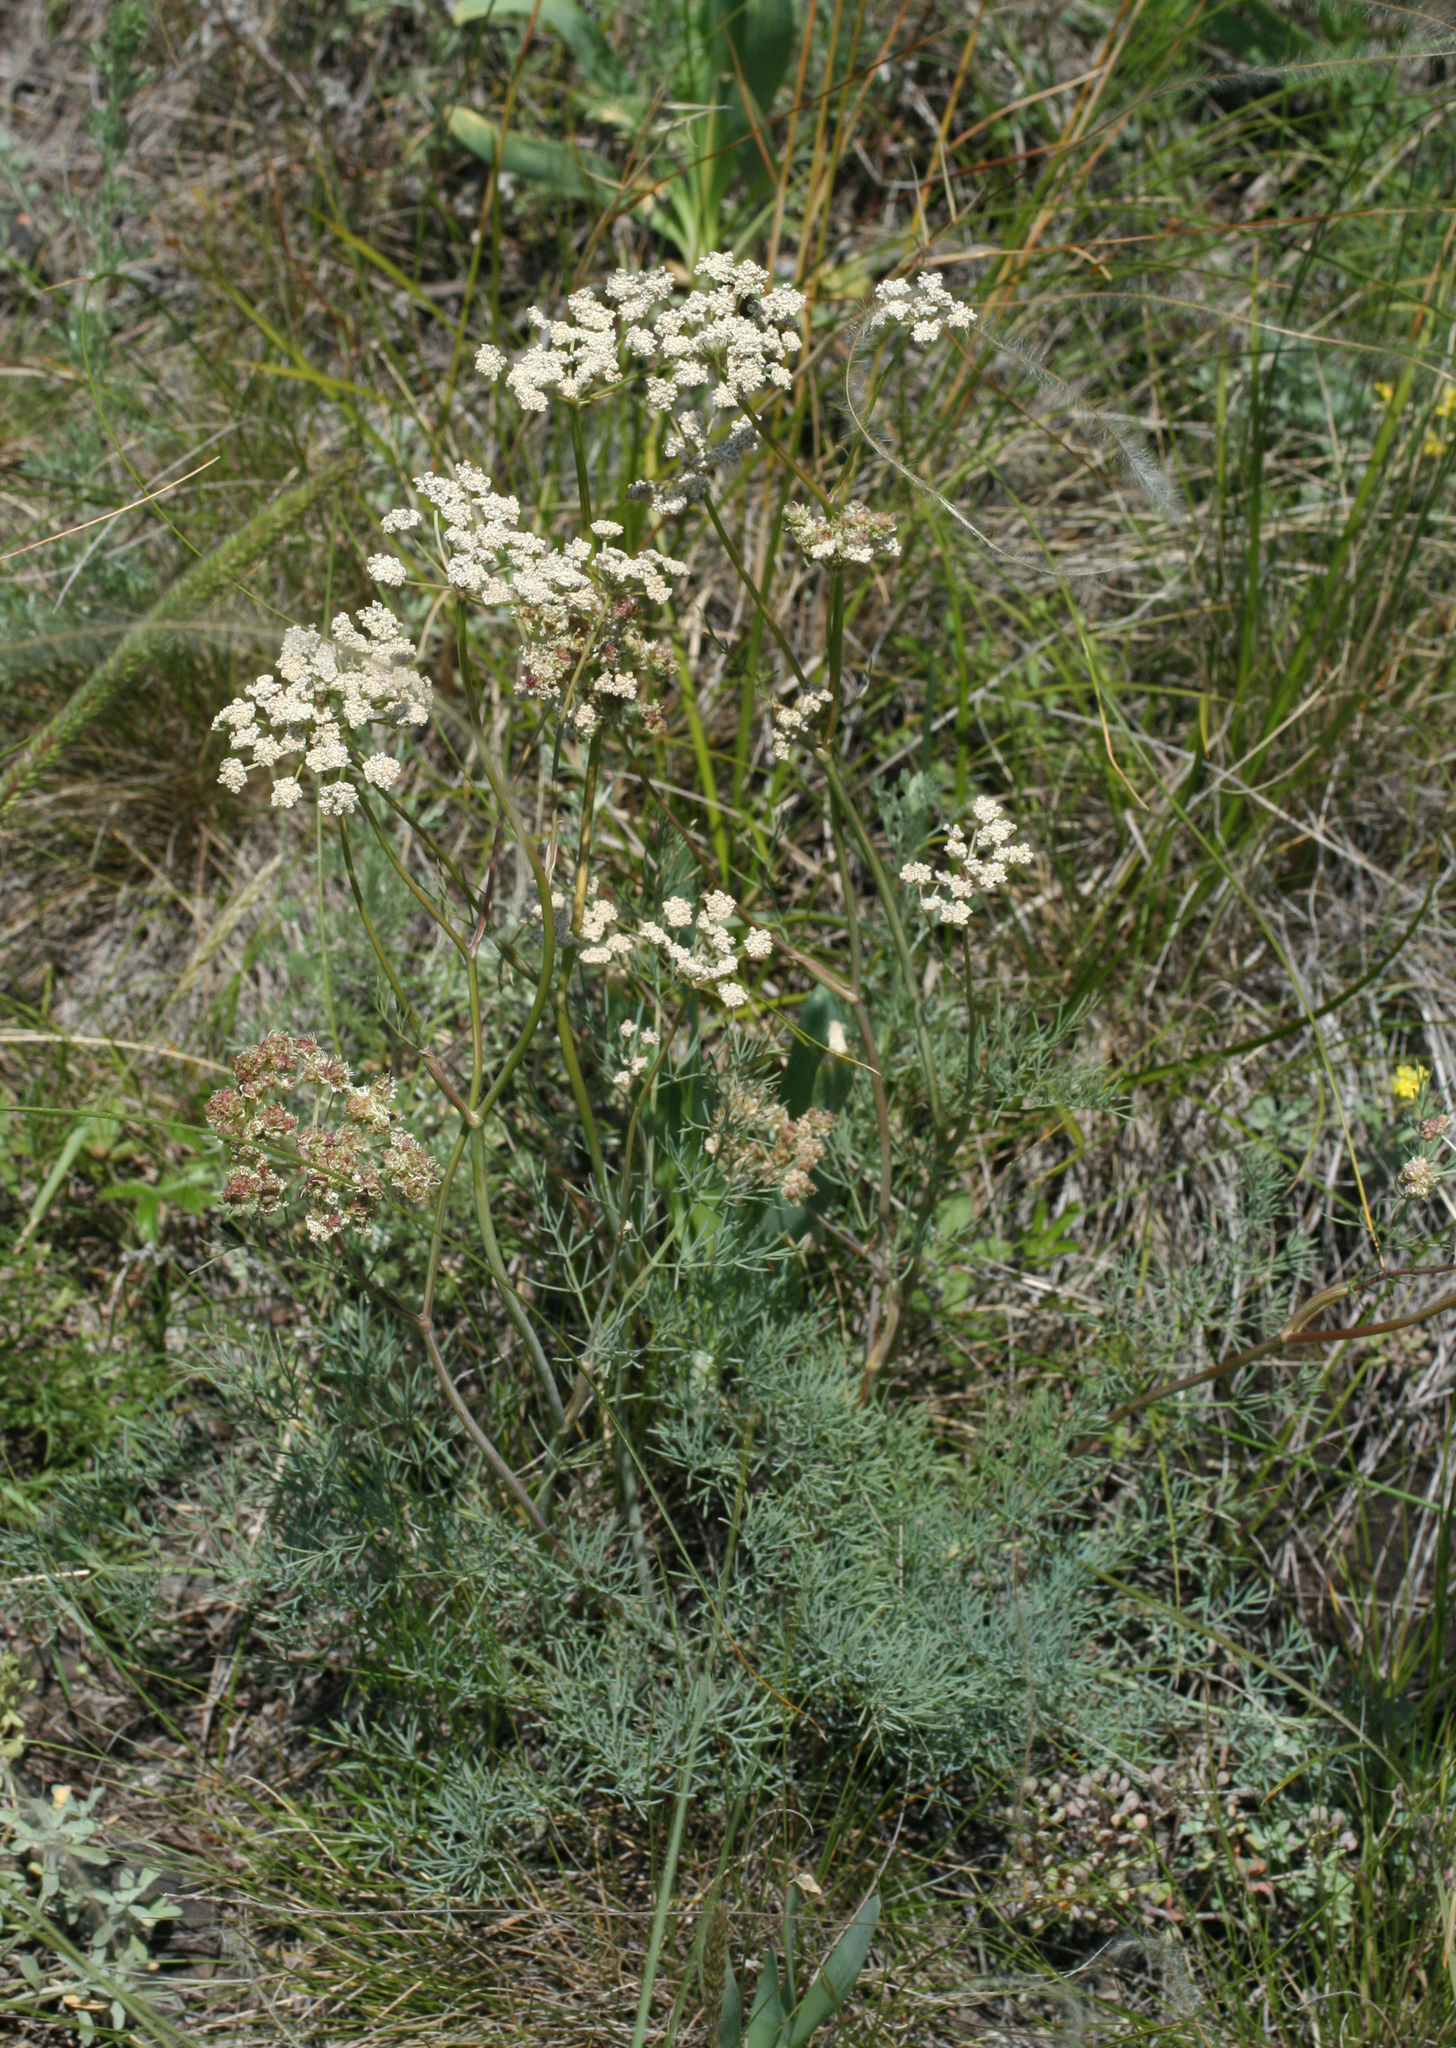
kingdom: Plantae
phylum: Tracheophyta
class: Magnoliopsida
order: Apiales
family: Apiaceae
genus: Seseli
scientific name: Seseli ledebourii
